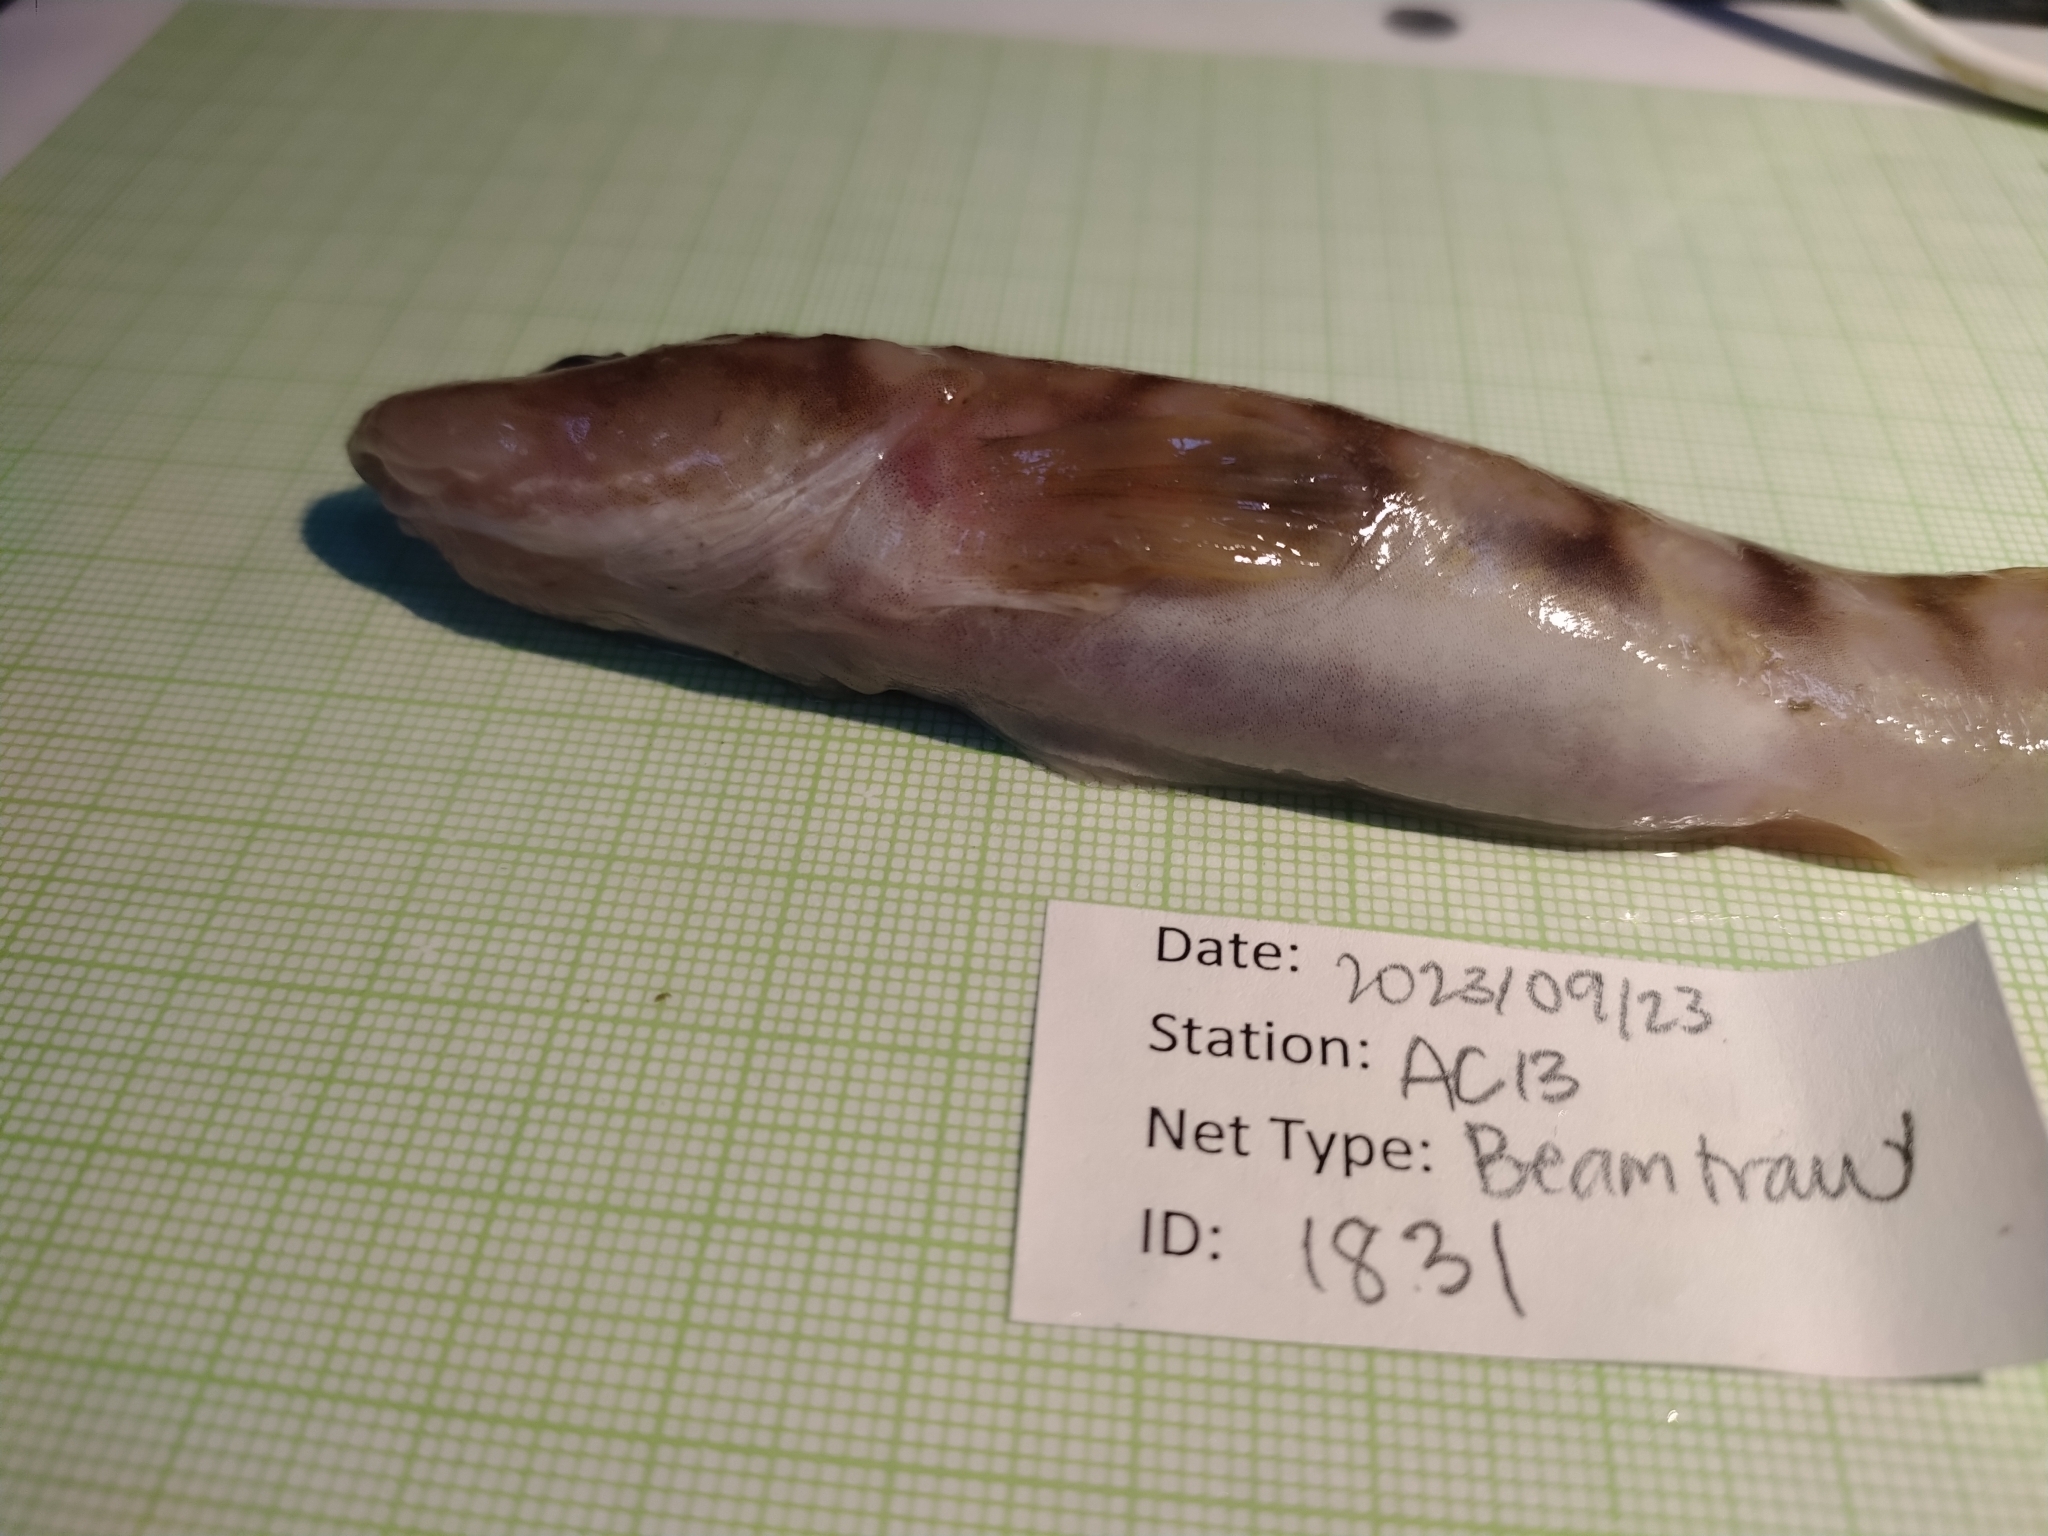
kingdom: Animalia
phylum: Chordata
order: Perciformes
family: Zoarcidae
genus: Lycodes
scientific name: Lycodes polaris
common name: Canadian eelpout
